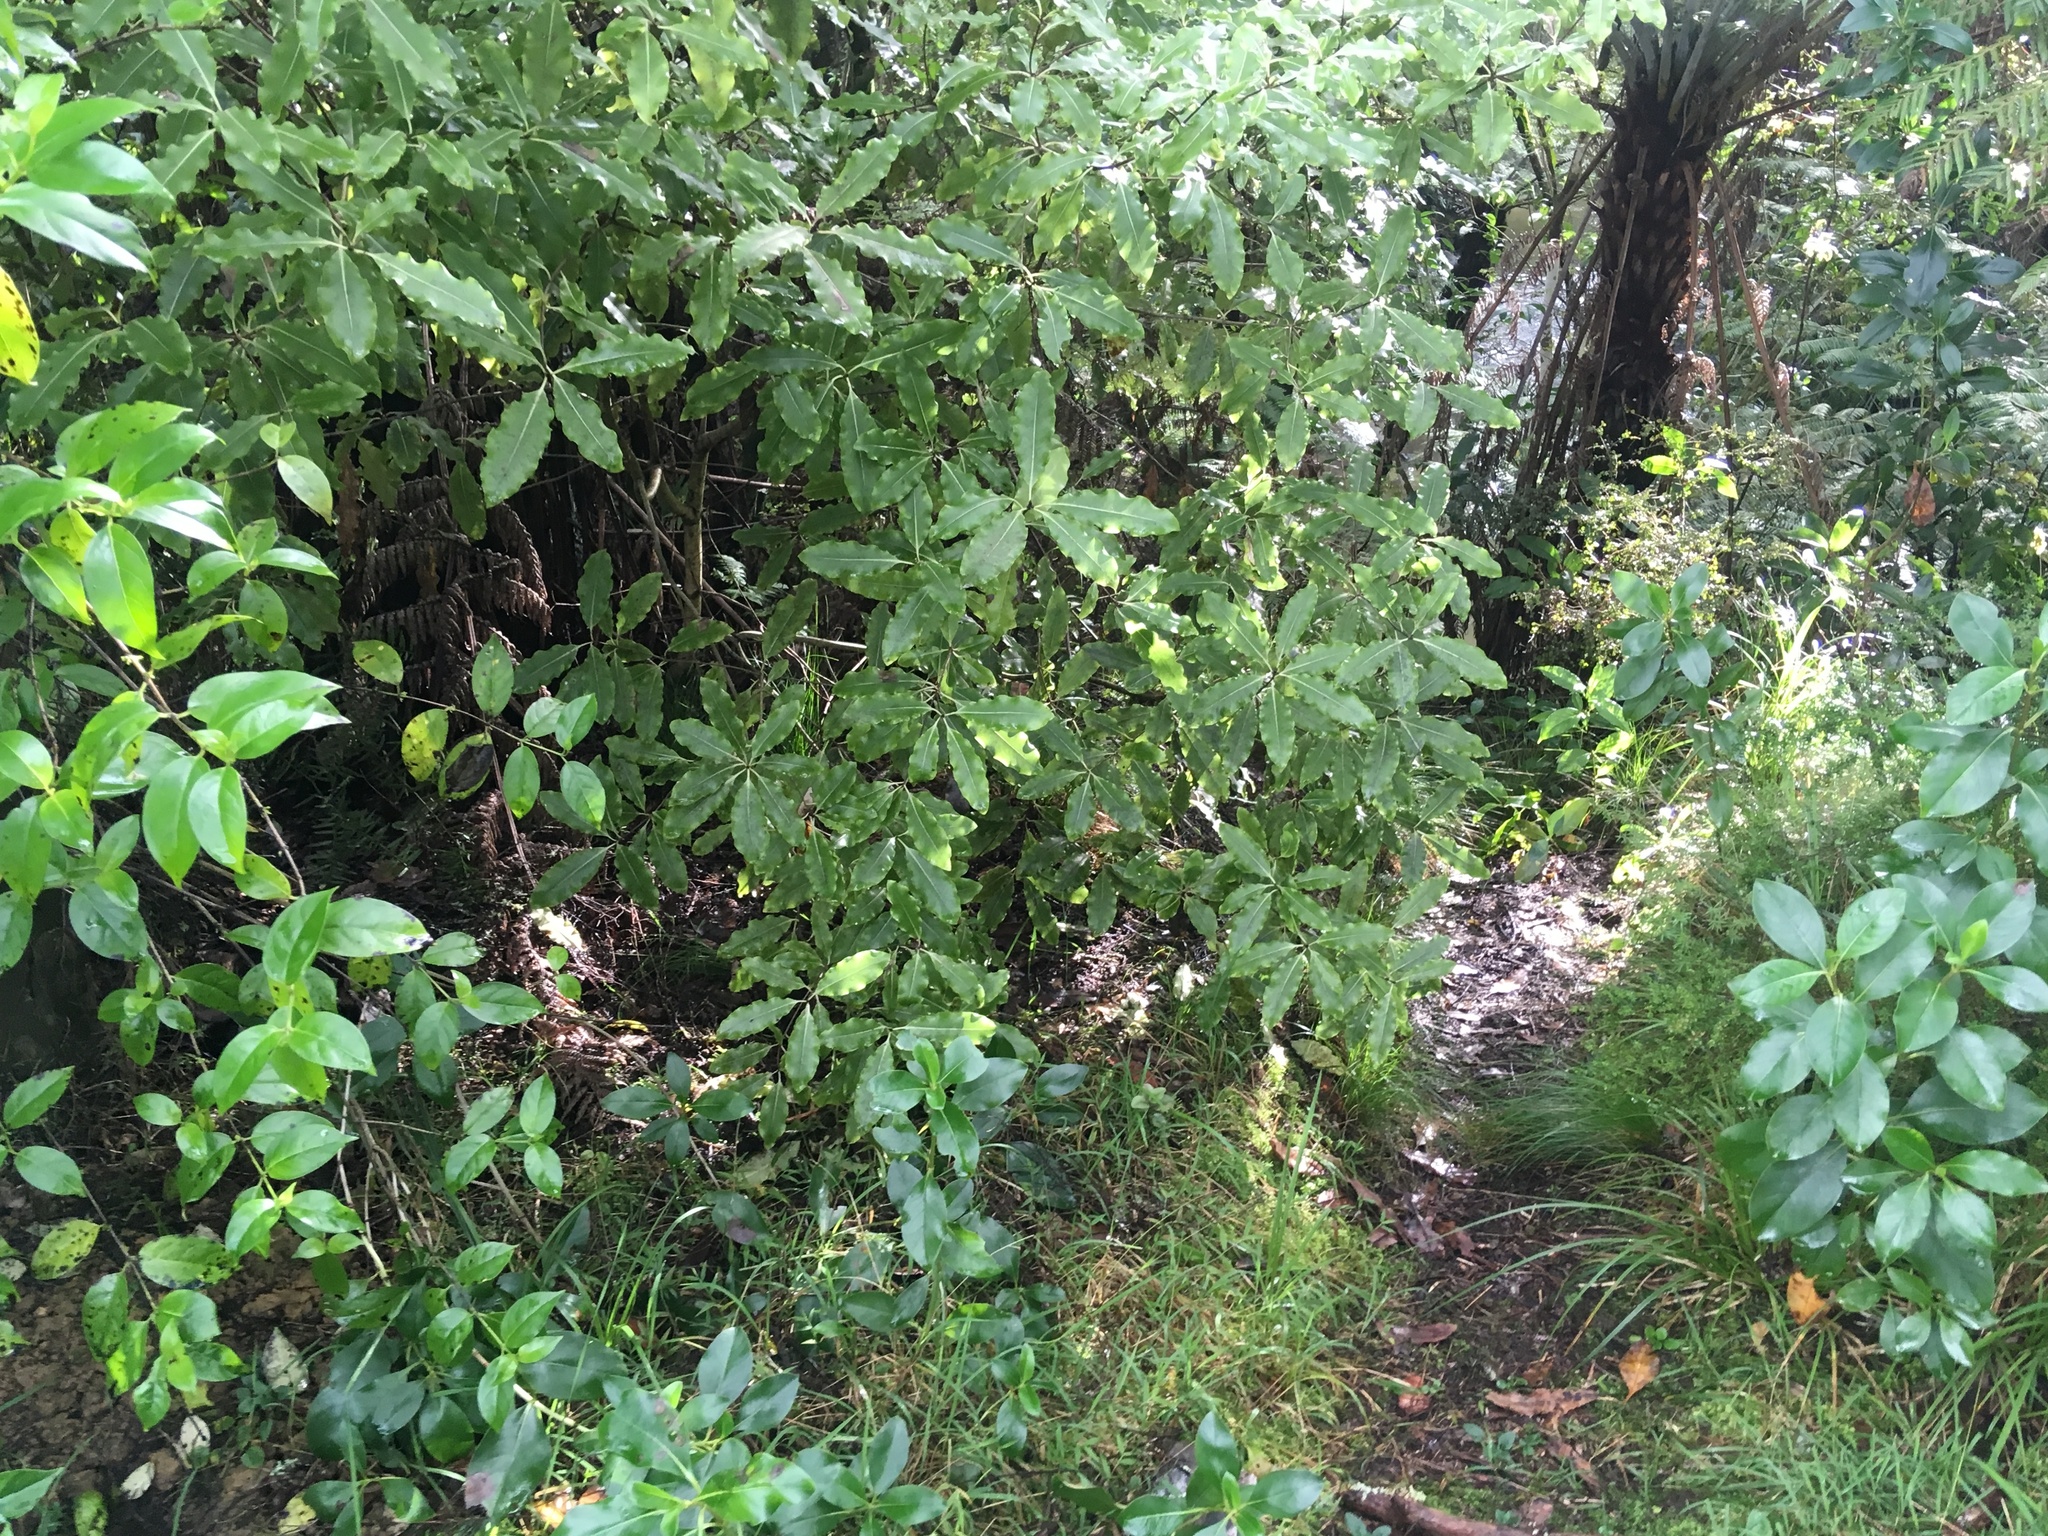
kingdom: Plantae
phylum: Tracheophyta
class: Magnoliopsida
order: Gentianales
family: Loganiaceae
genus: Geniostoma
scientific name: Geniostoma ligustrifolium
